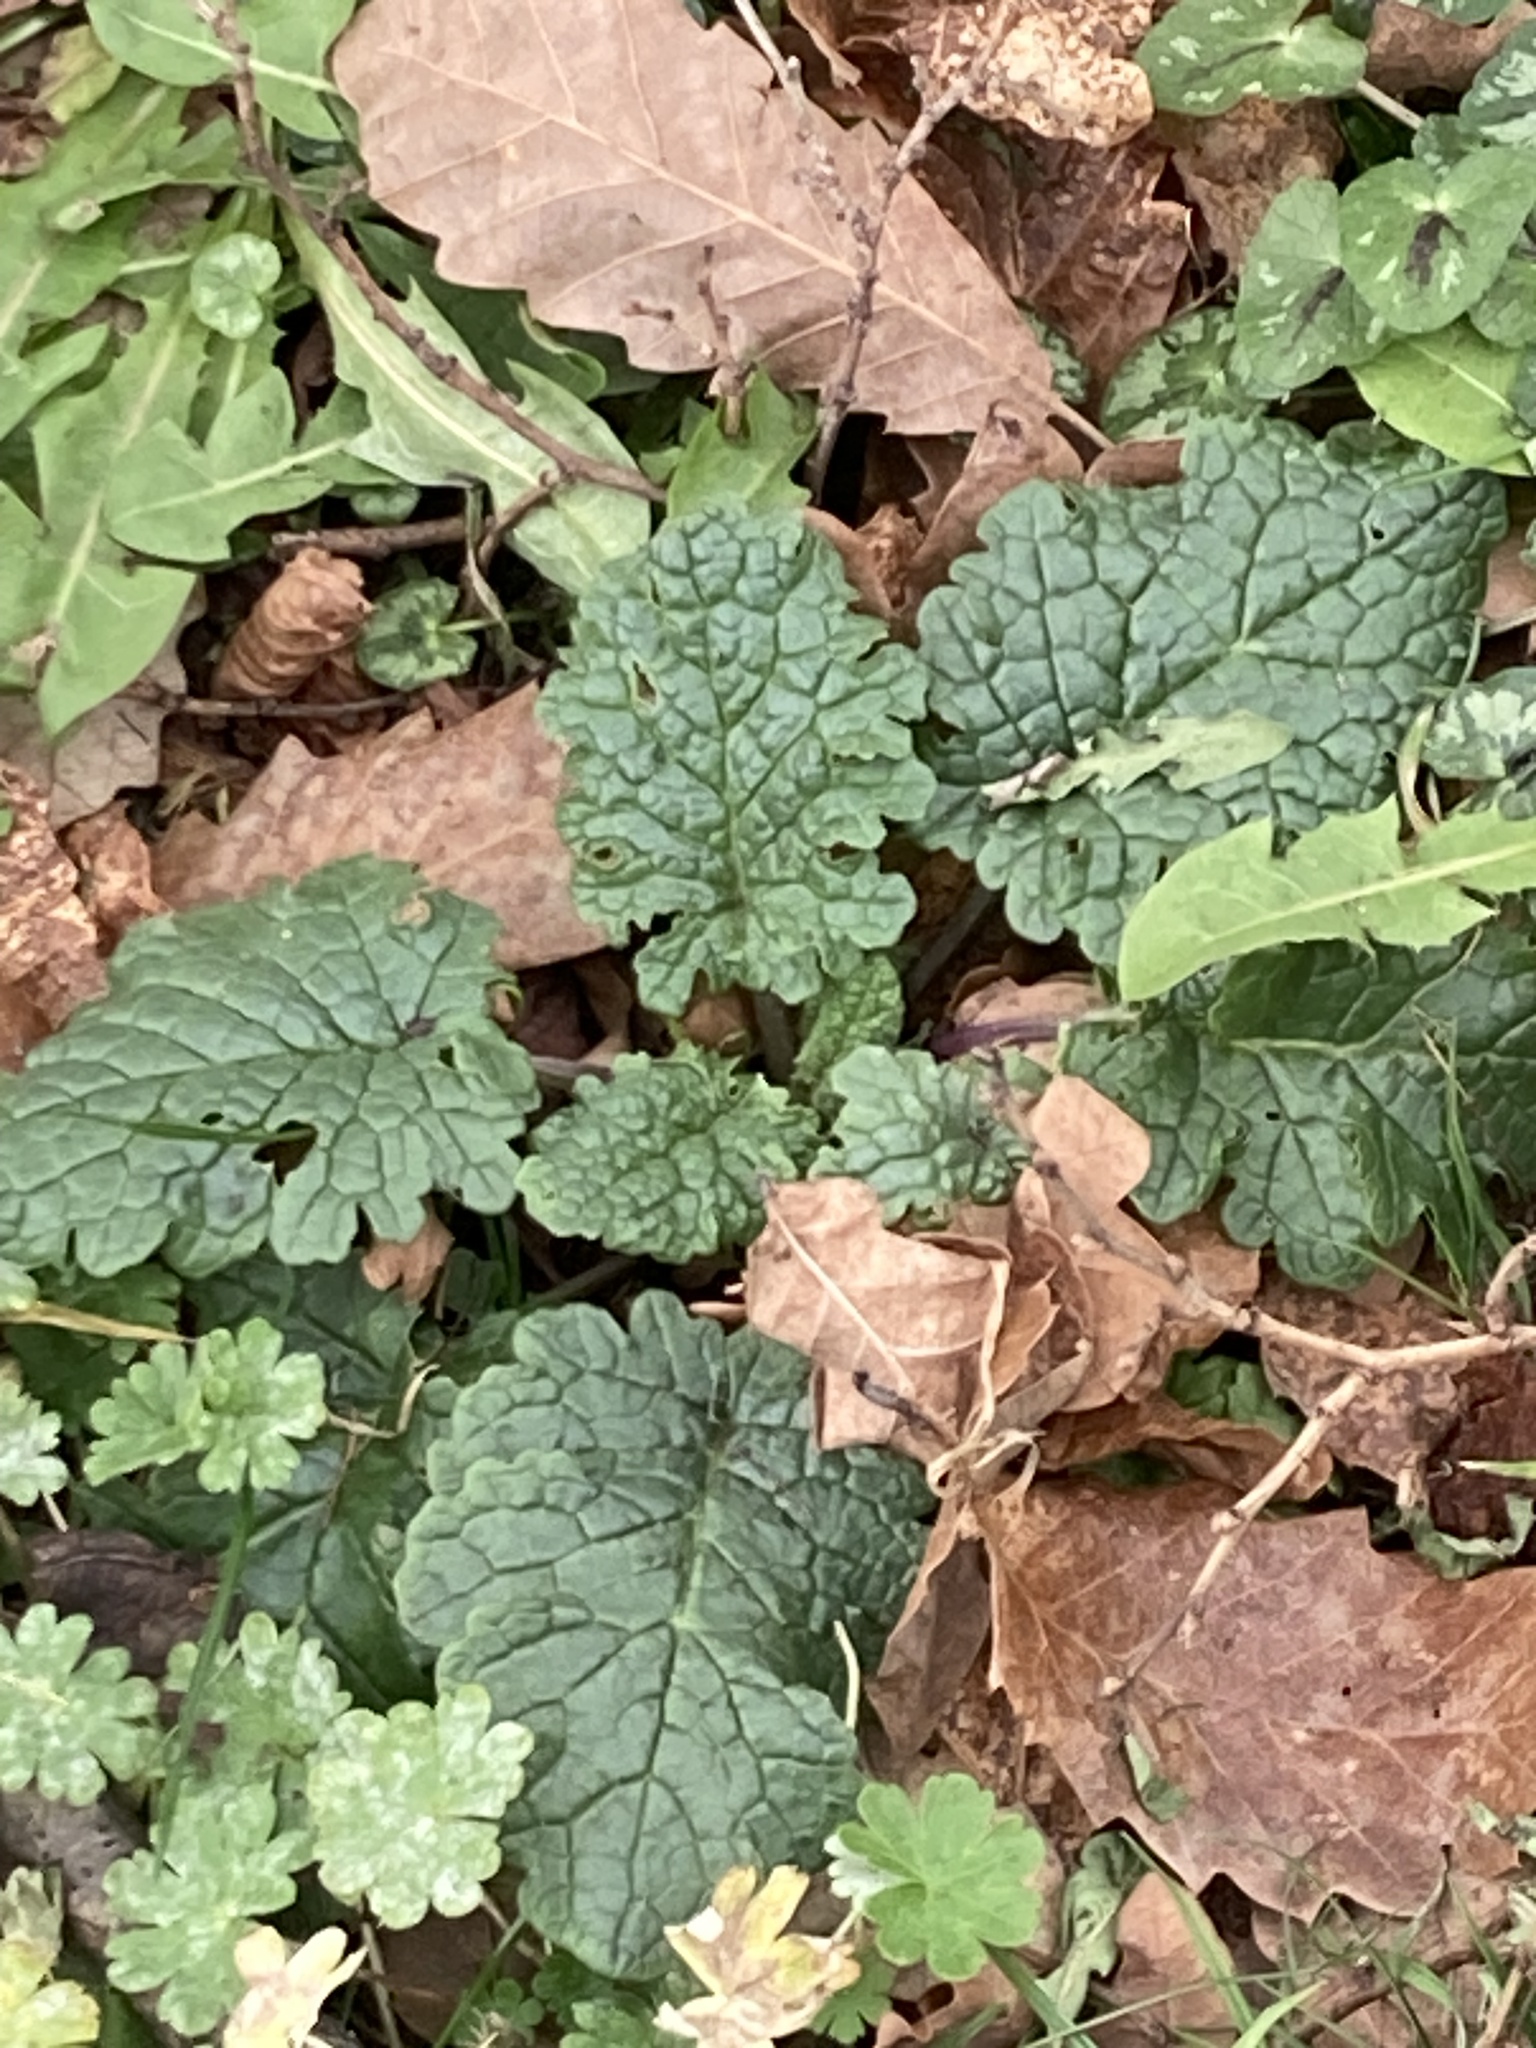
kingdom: Plantae
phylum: Tracheophyta
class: Magnoliopsida
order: Asterales
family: Asteraceae
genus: Jacobaea
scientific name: Jacobaea vulgaris
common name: Stinking willie
